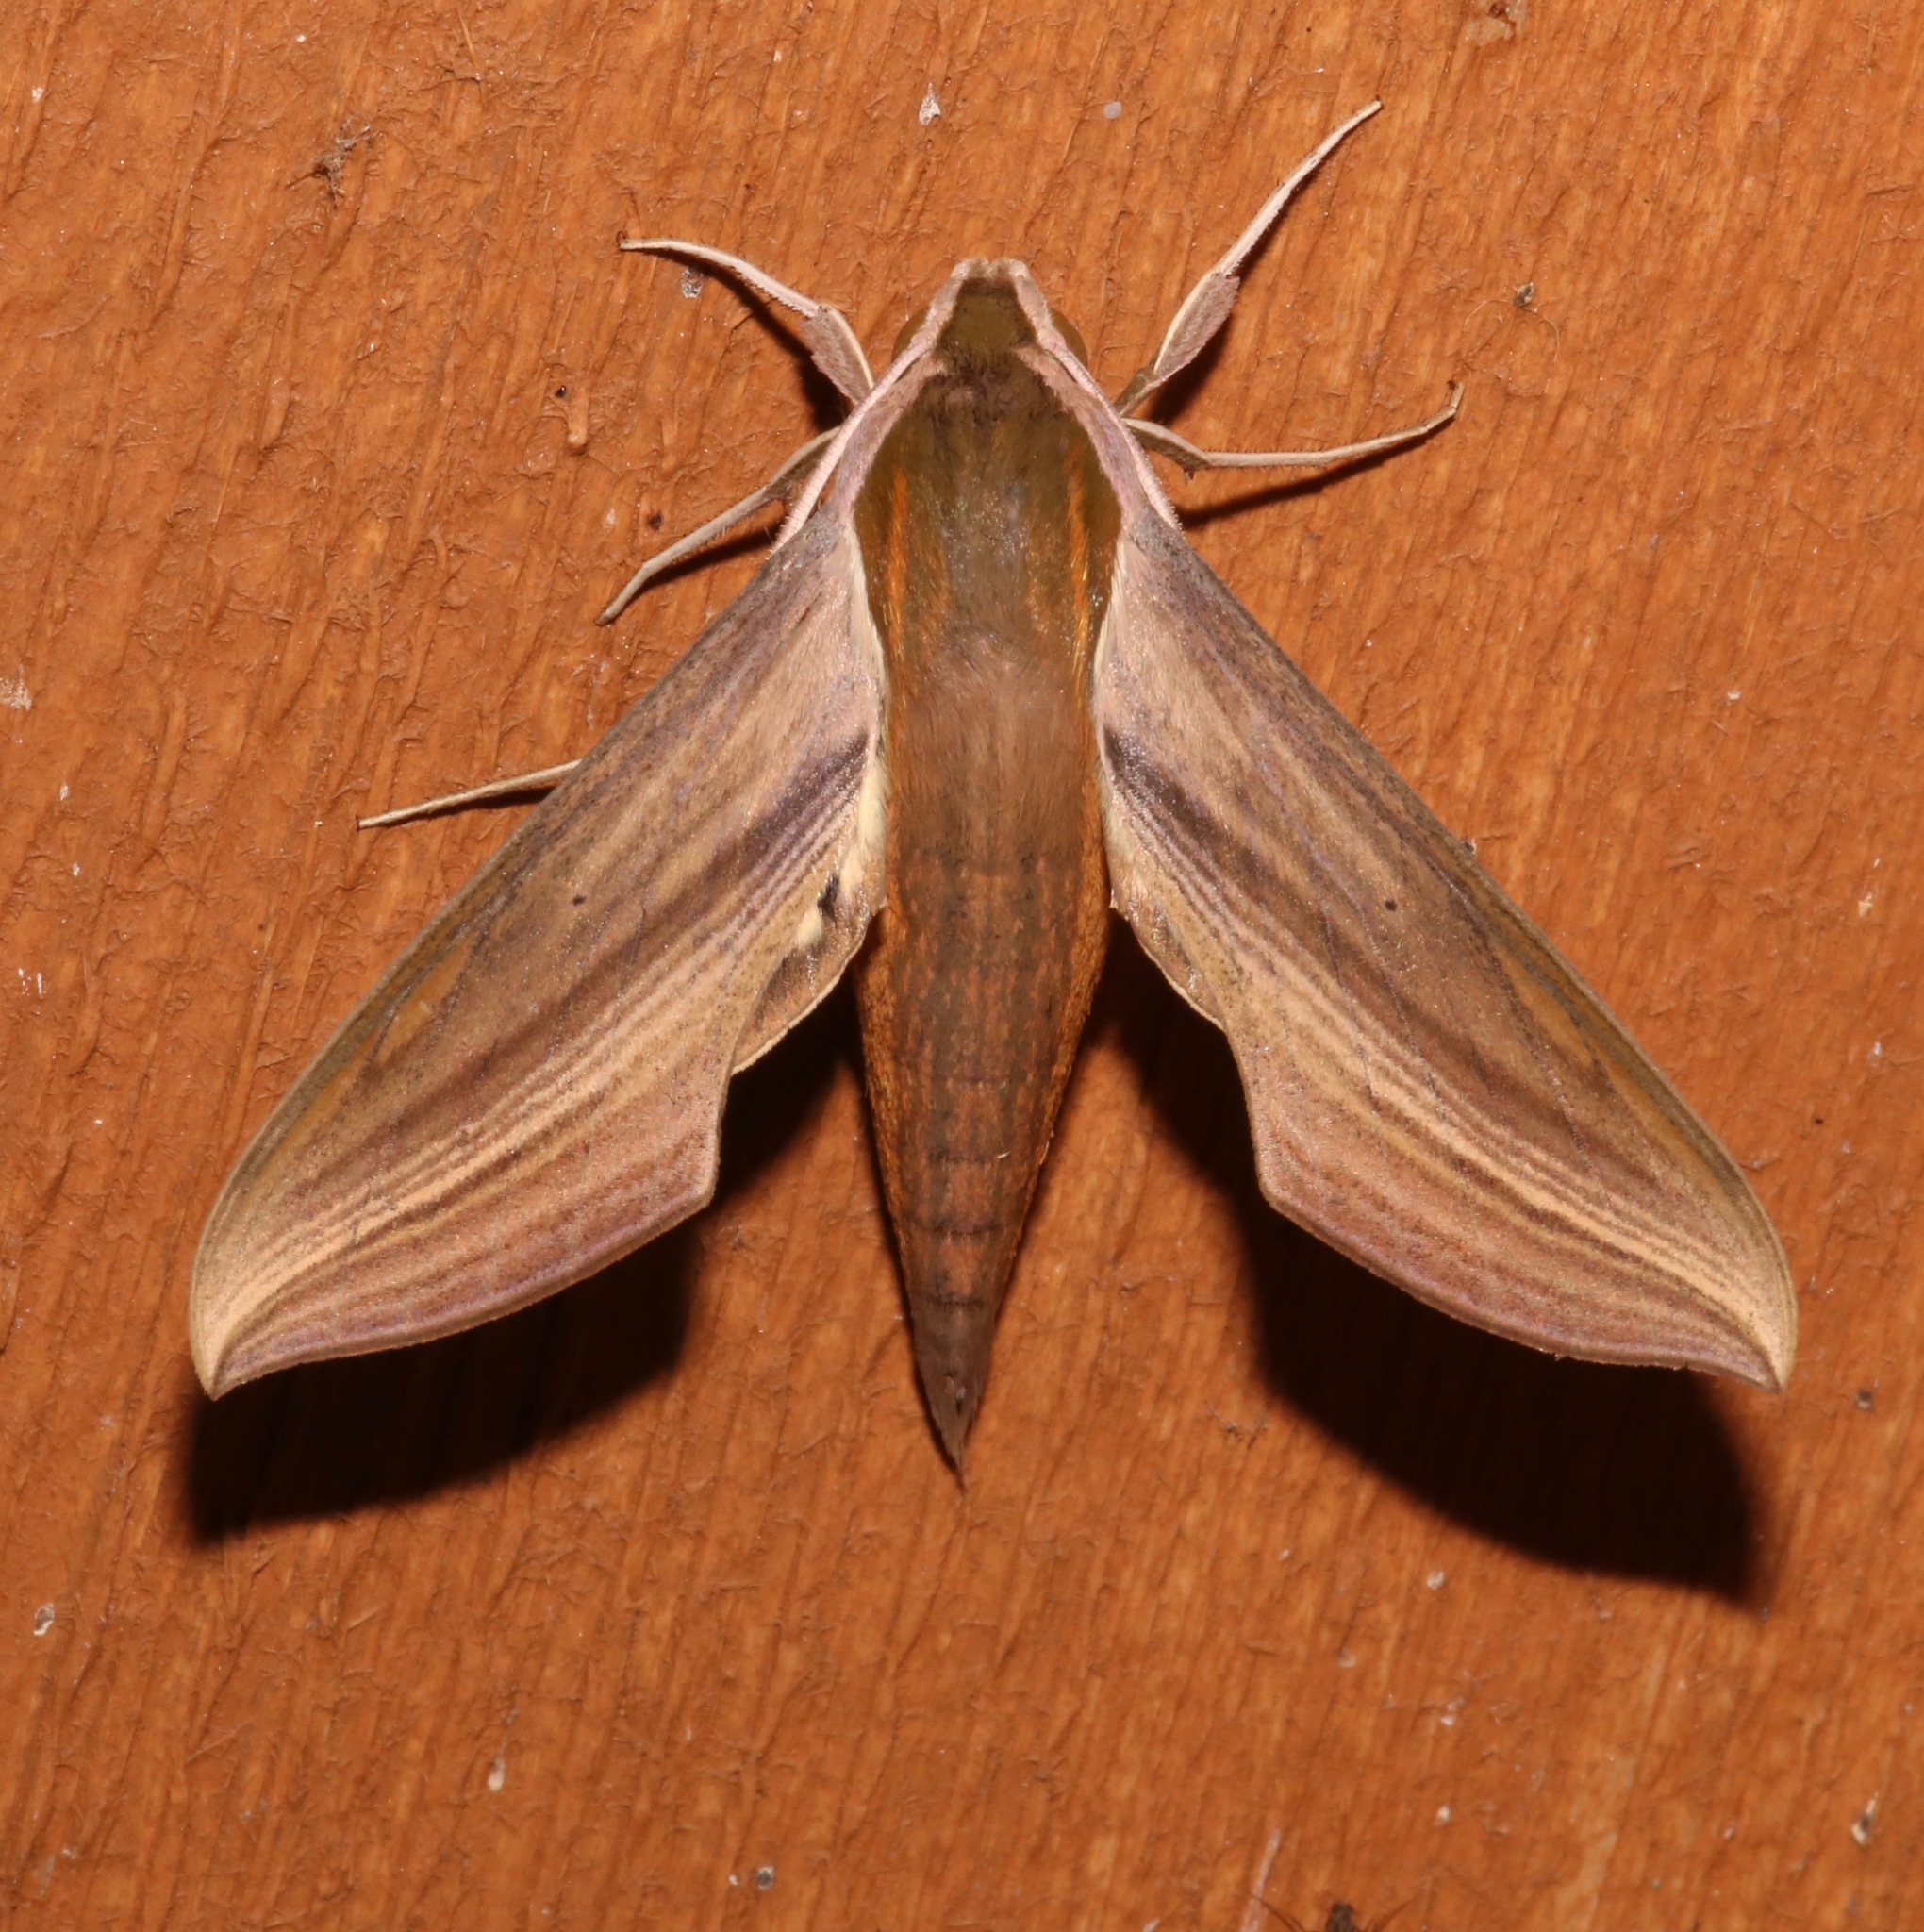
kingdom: Animalia
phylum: Arthropoda
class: Insecta
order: Lepidoptera
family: Sphingidae
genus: Xylophanes
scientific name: Xylophanes tersa
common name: Tersa sphinx
